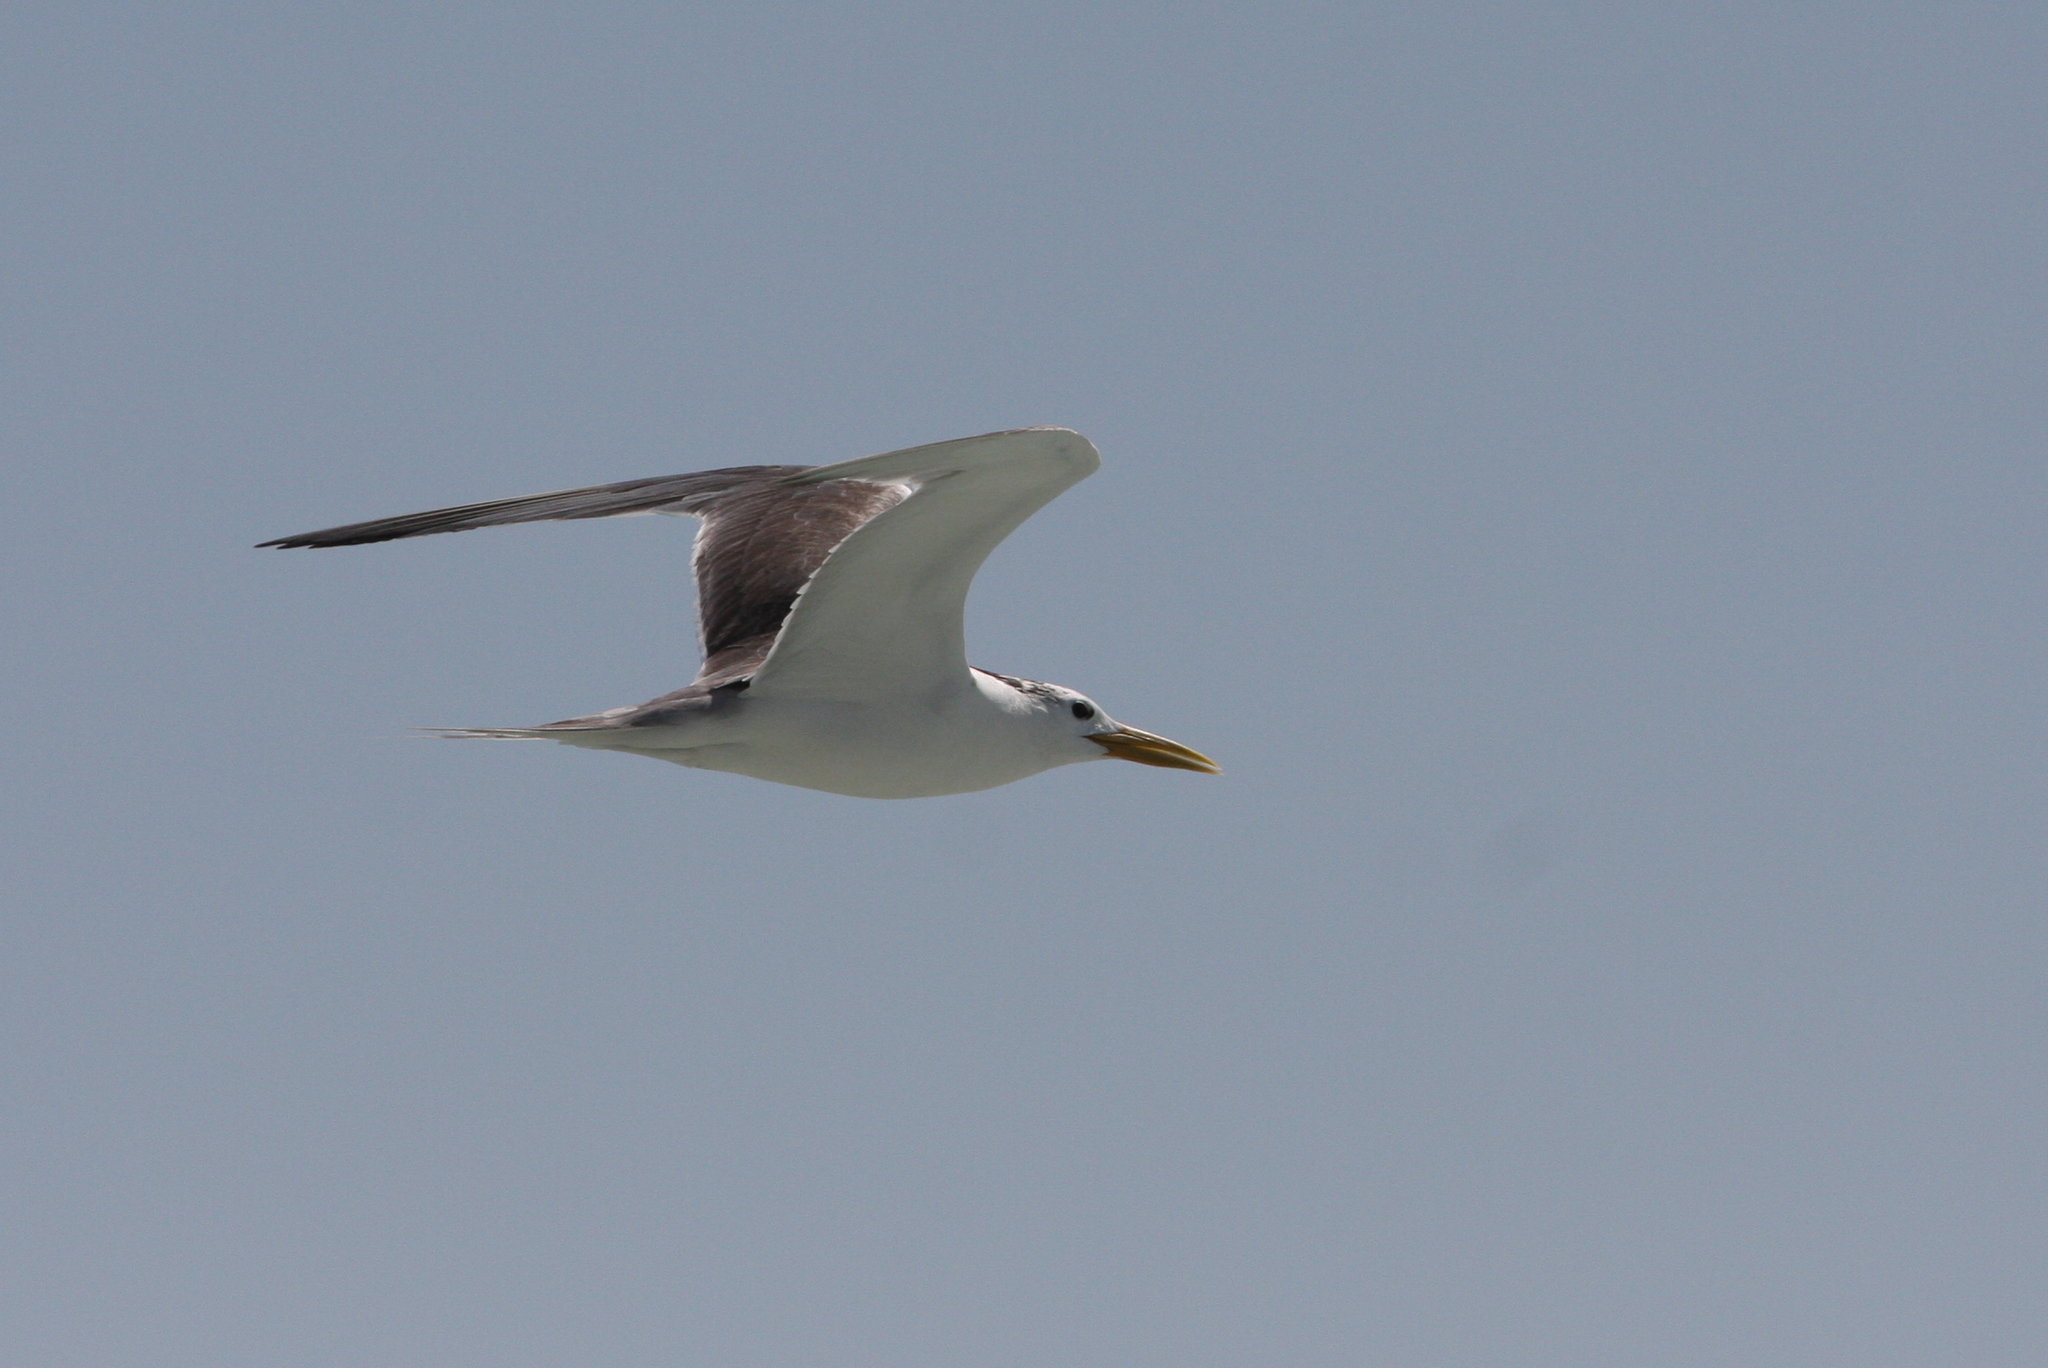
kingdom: Animalia
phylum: Chordata
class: Aves
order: Charadriiformes
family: Laridae
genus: Thalasseus
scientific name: Thalasseus bergii
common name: Greater crested tern
